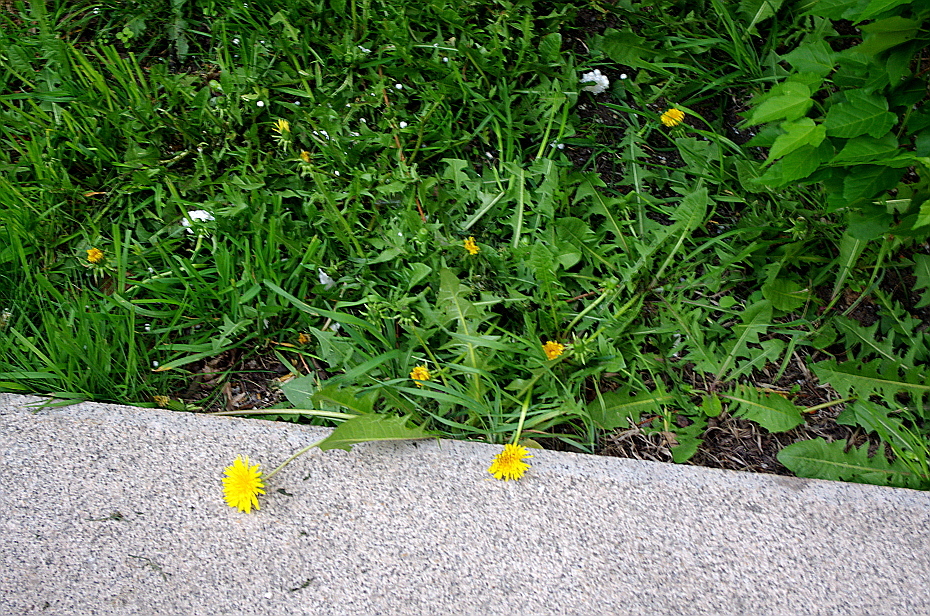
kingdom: Plantae
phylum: Tracheophyta
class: Magnoliopsida
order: Asterales
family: Asteraceae
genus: Taraxacum
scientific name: Taraxacum officinale
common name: Common dandelion
